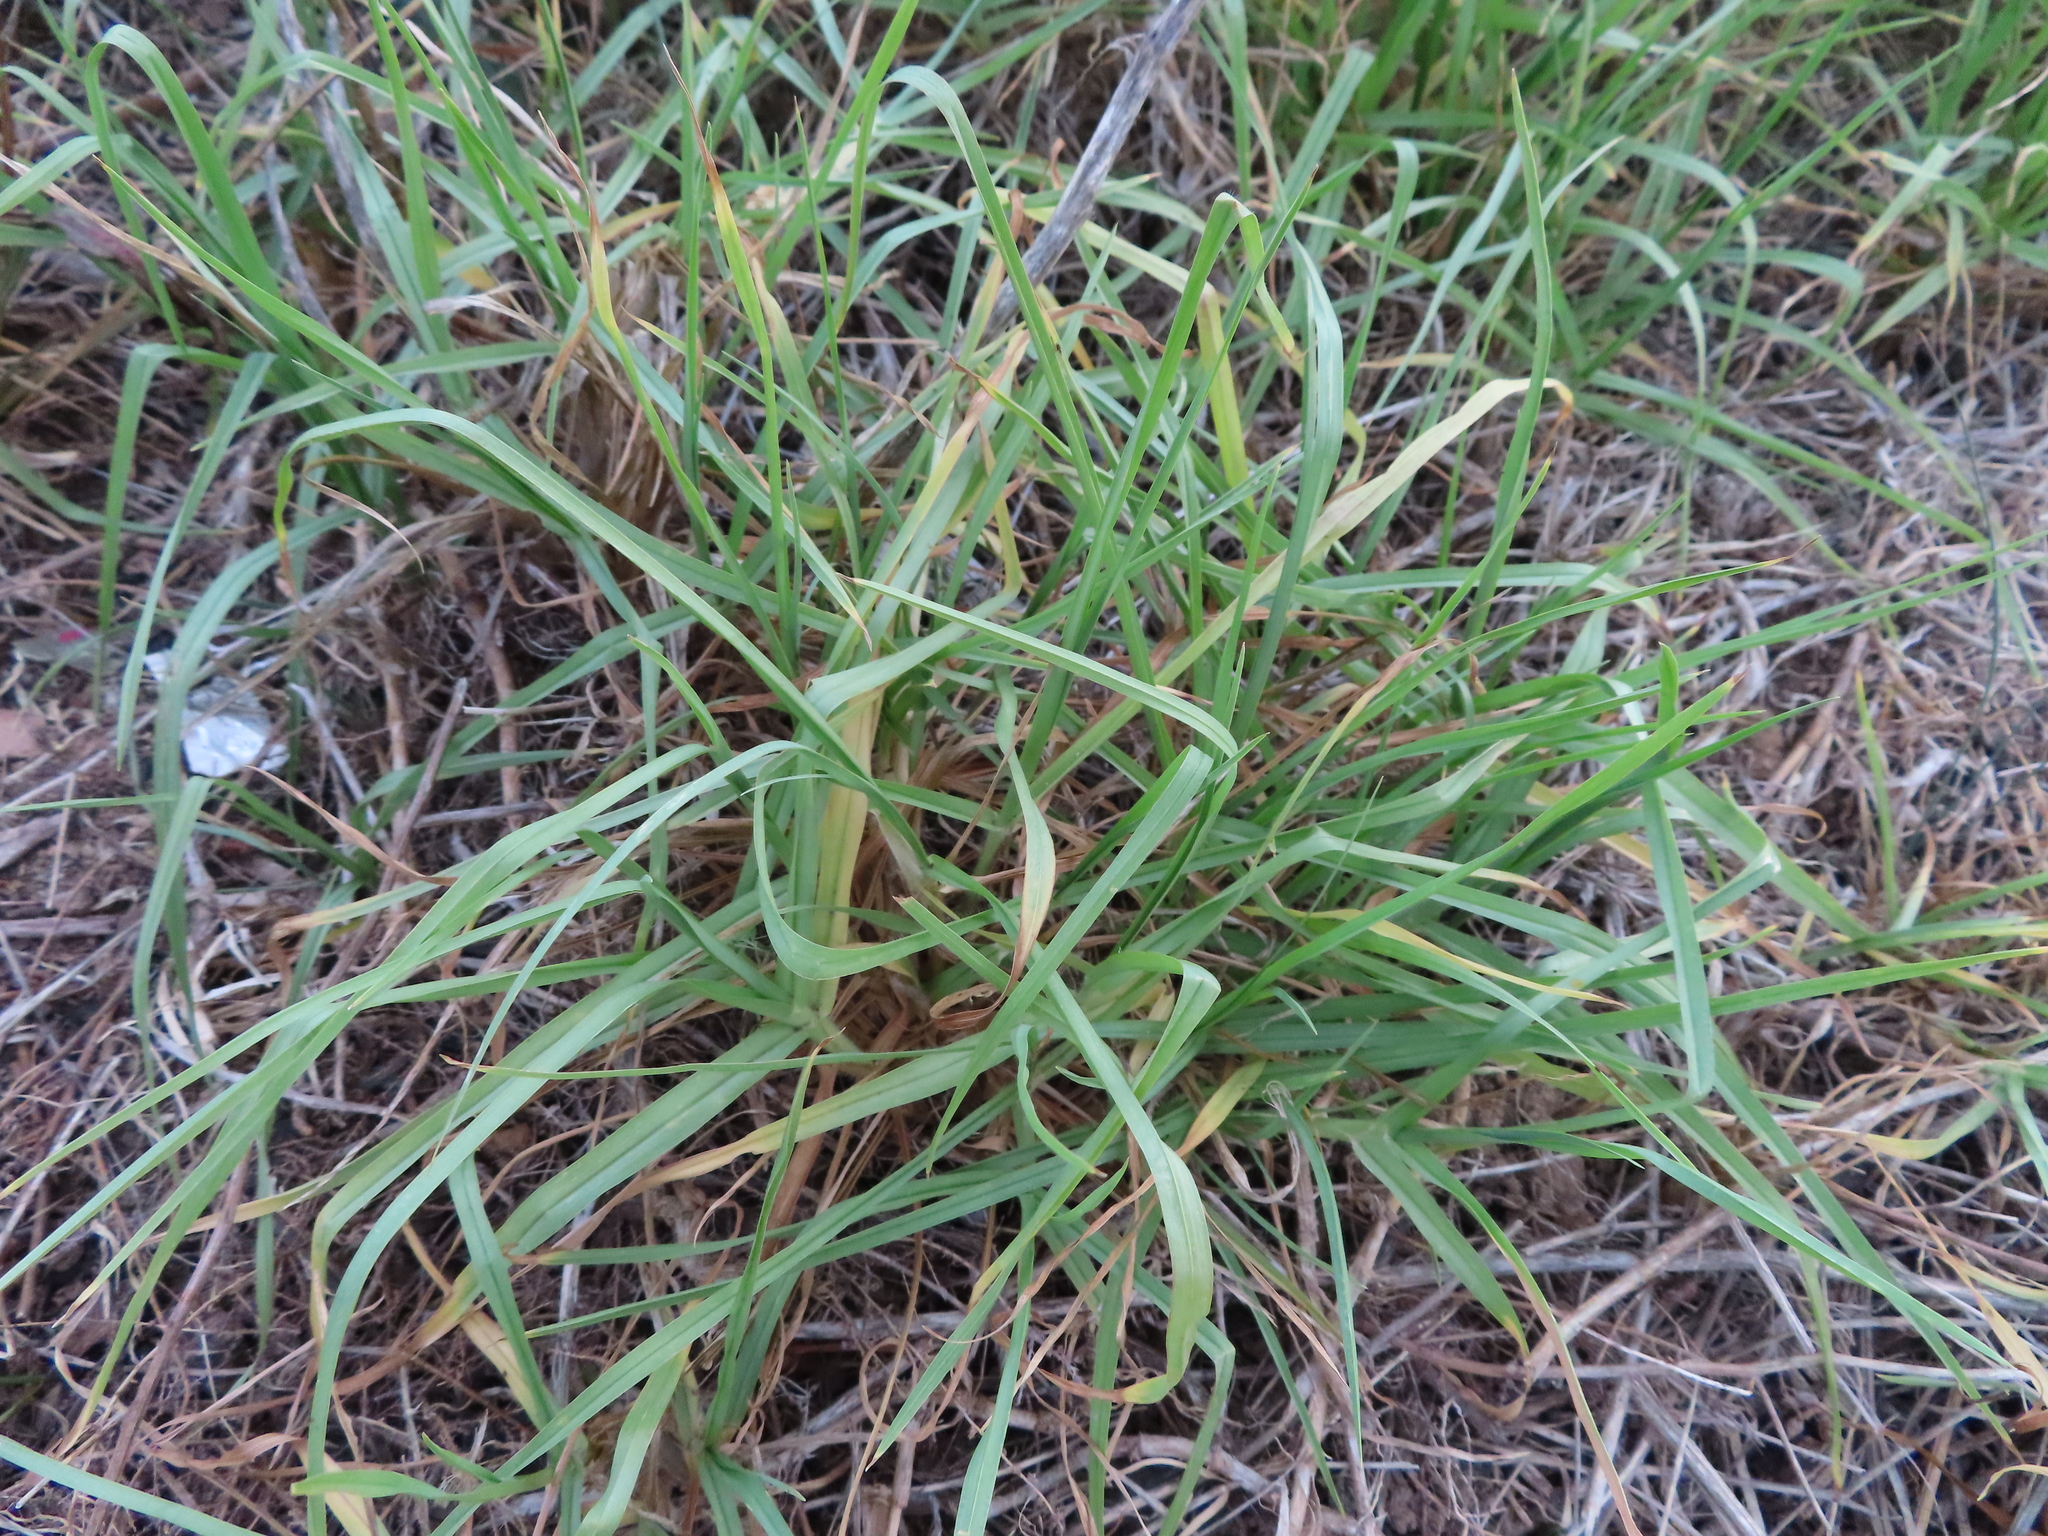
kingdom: Plantae
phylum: Tracheophyta
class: Liliopsida
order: Poales
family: Poaceae
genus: Cenchrus
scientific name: Cenchrus clandestinus
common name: Kikuyugrass
